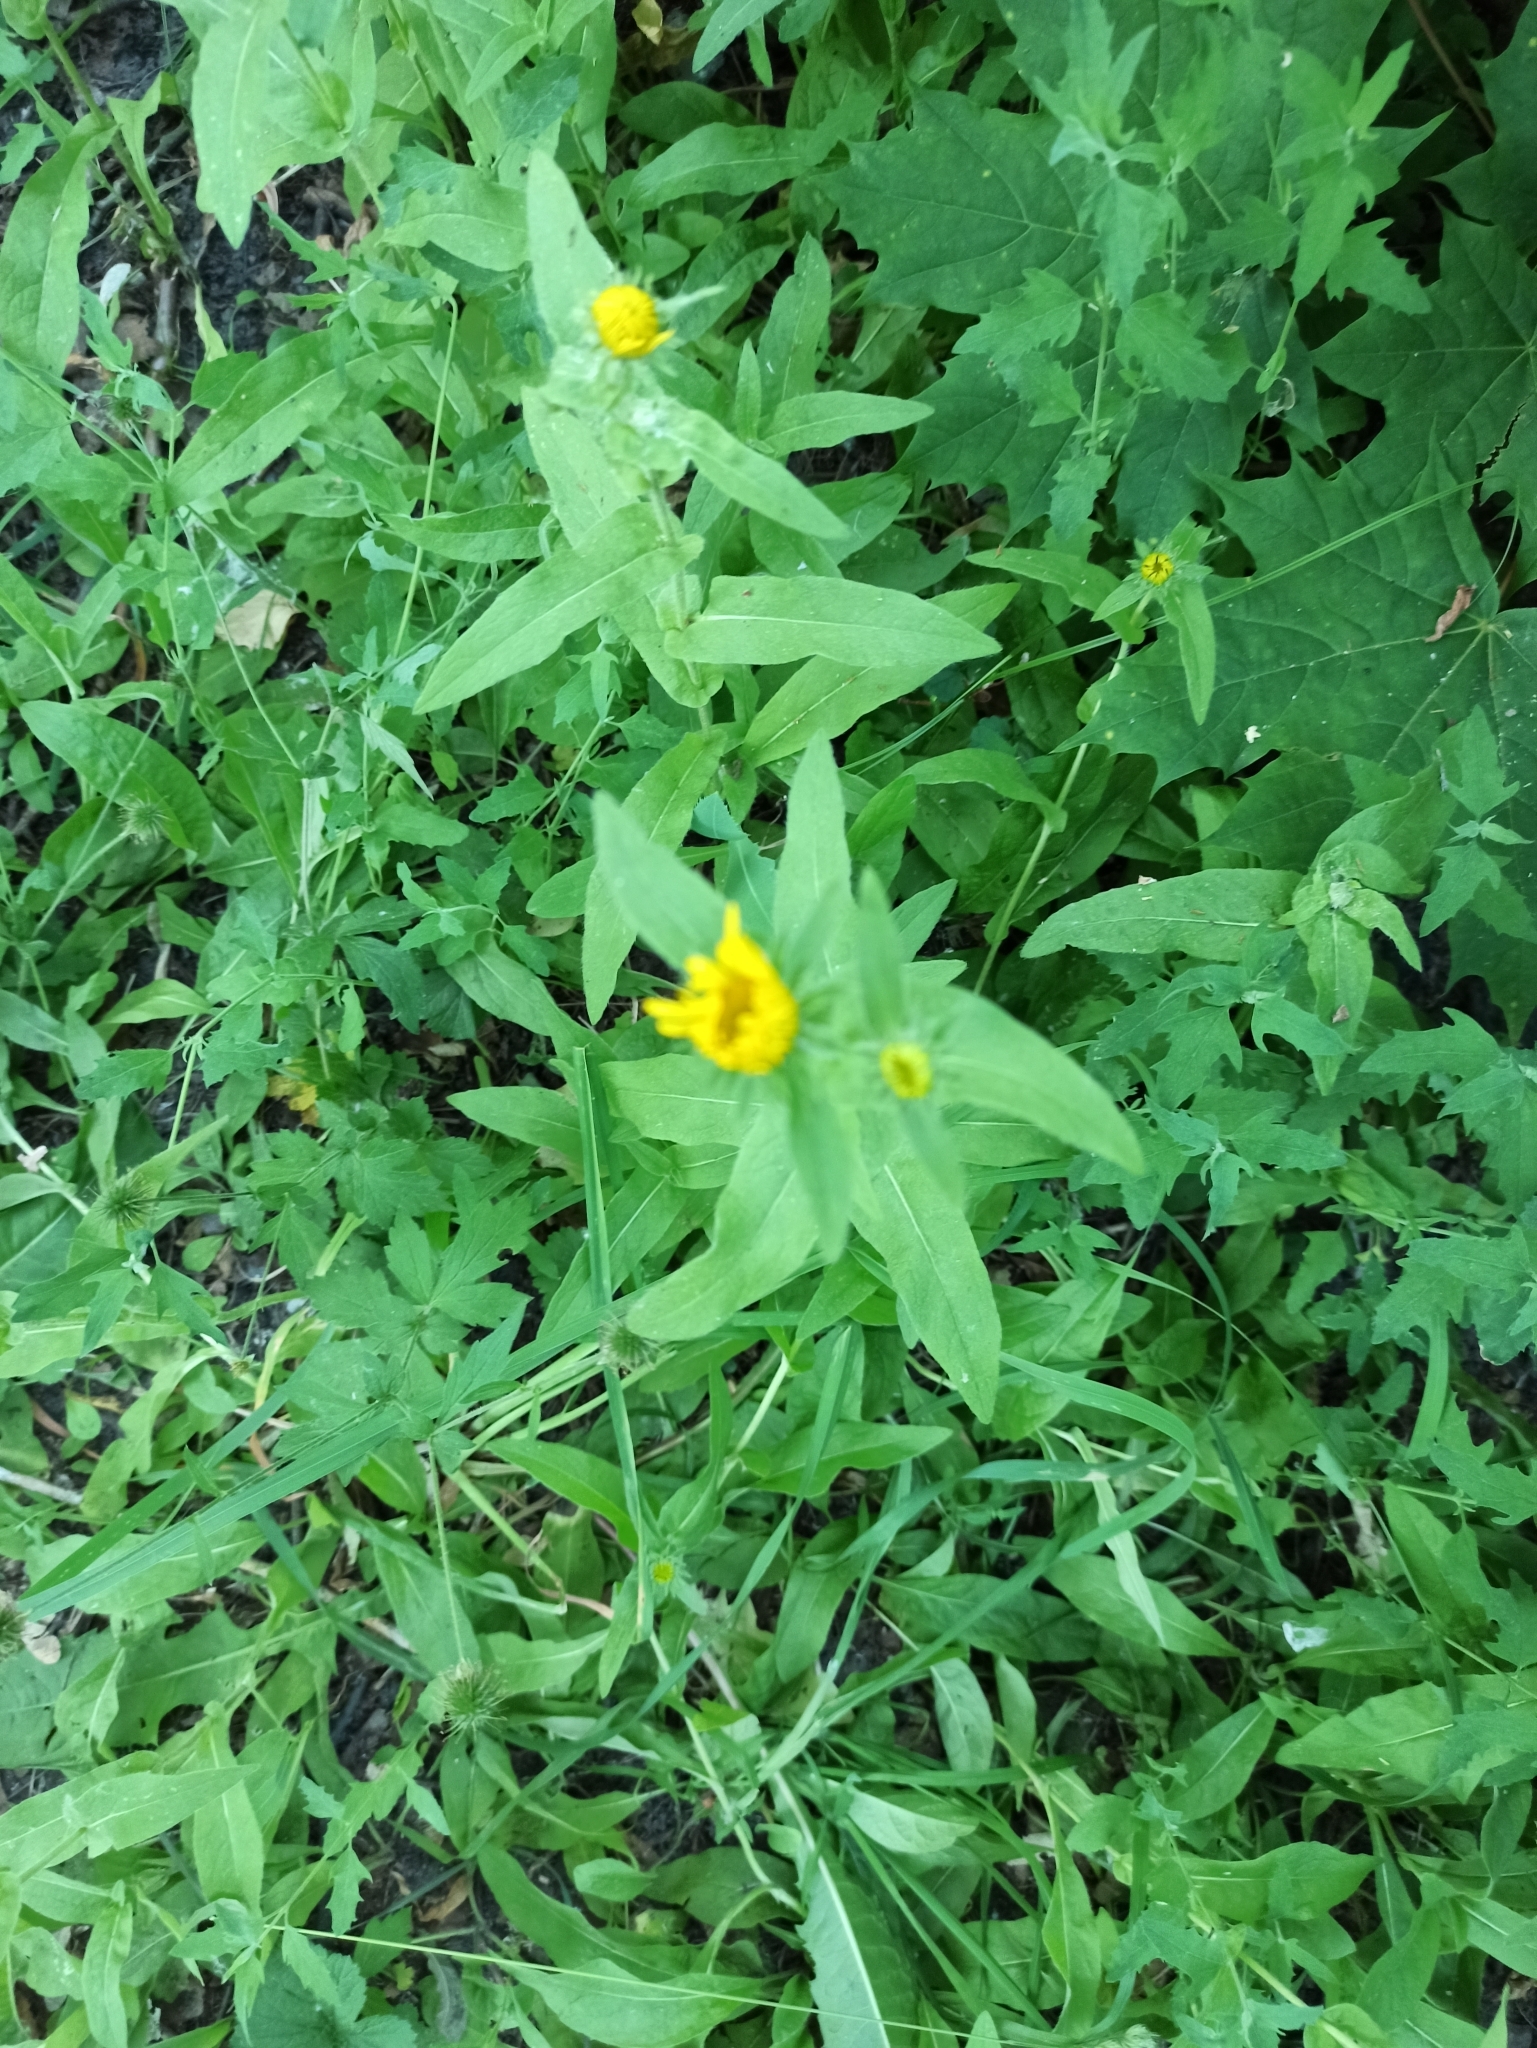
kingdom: Plantae
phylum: Tracheophyta
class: Magnoliopsida
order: Asterales
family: Asteraceae
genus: Pentanema
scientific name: Pentanema britannicum
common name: British elecampane
